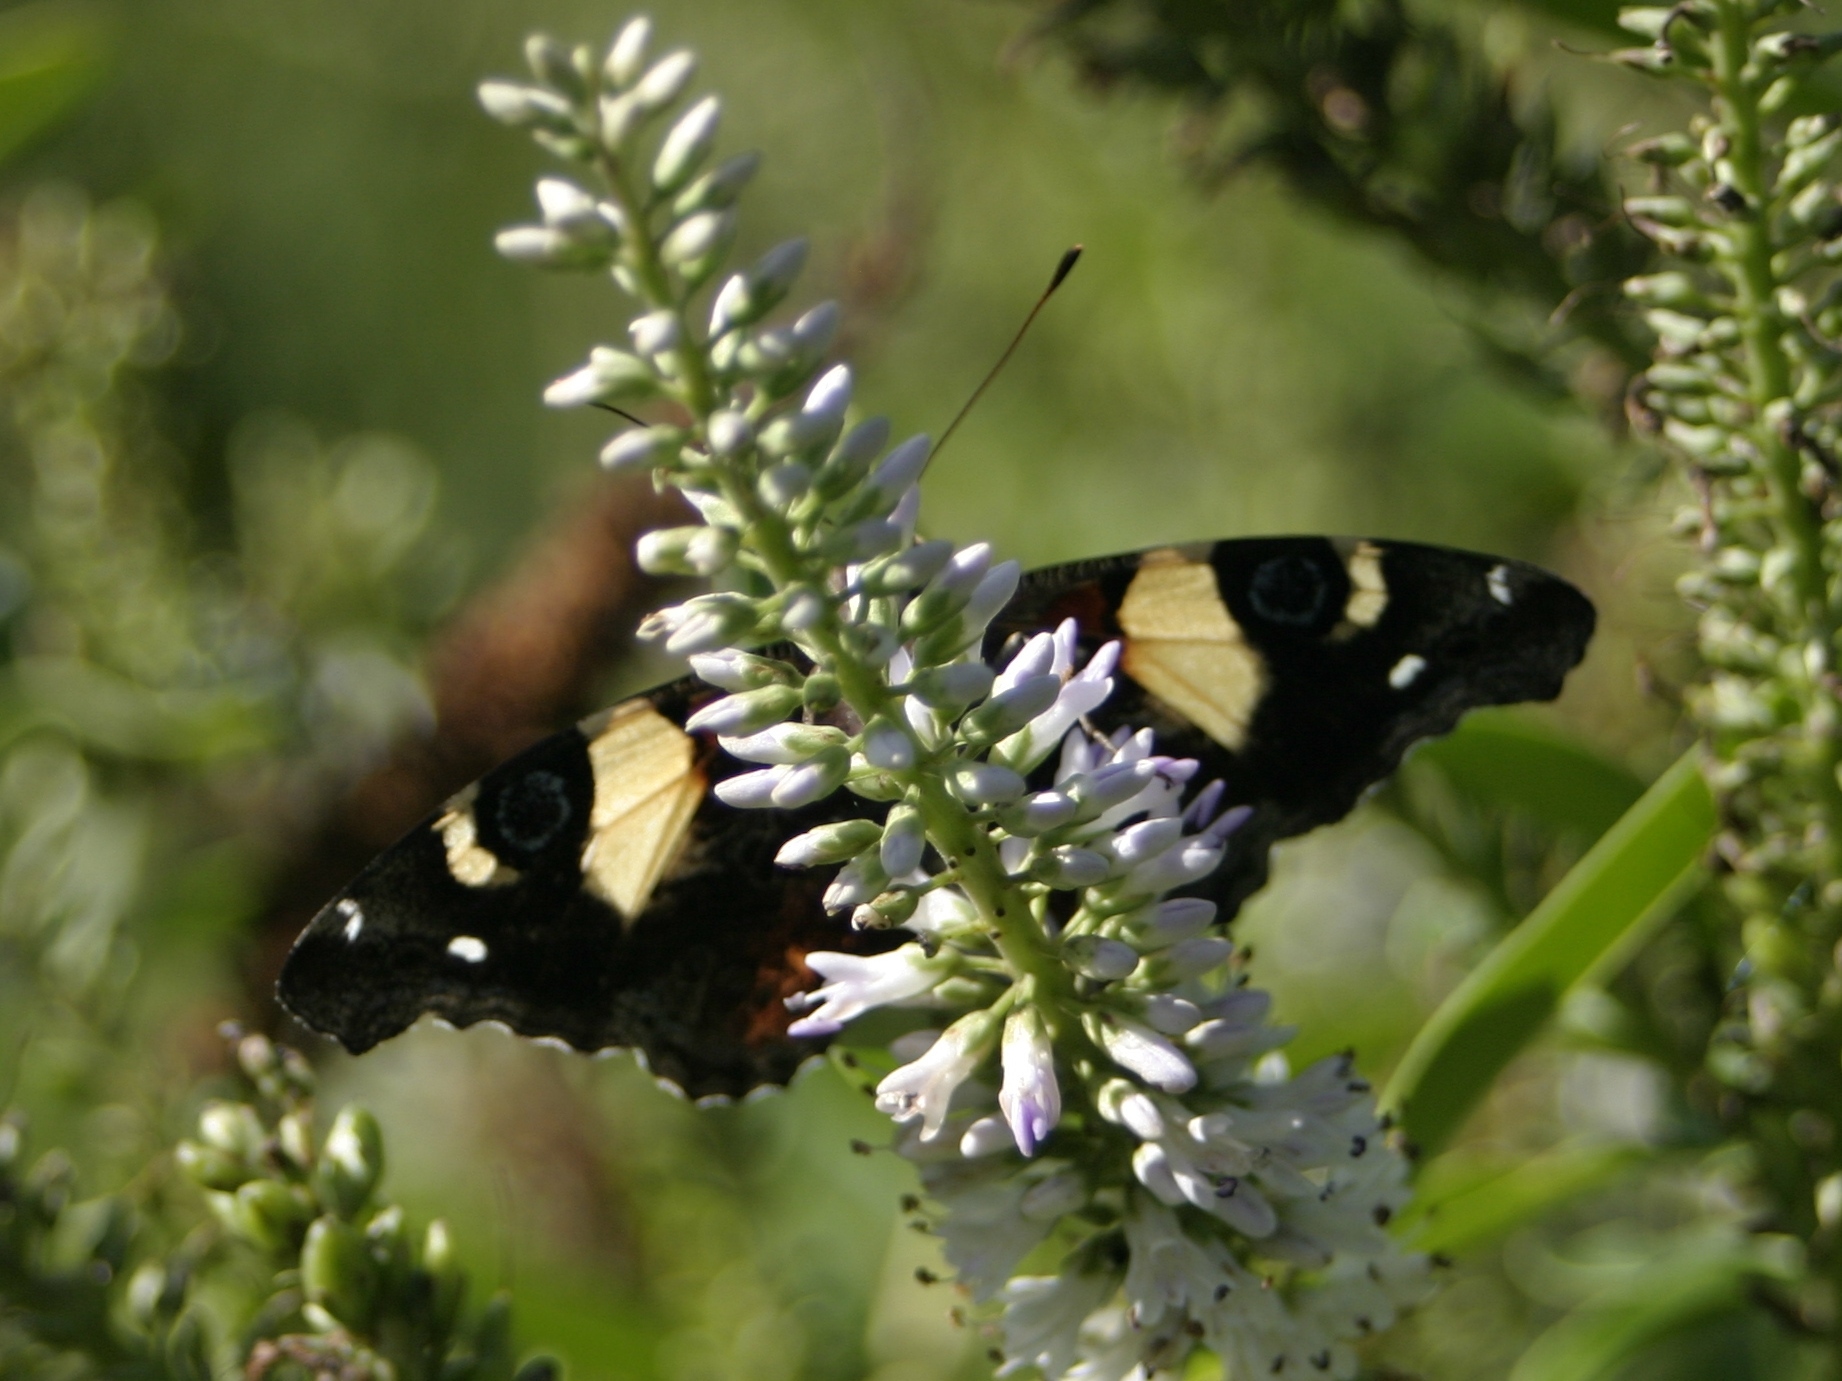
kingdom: Animalia
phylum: Arthropoda
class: Insecta
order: Lepidoptera
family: Nymphalidae
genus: Vanessa
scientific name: Vanessa itea
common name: Yellow admiral
